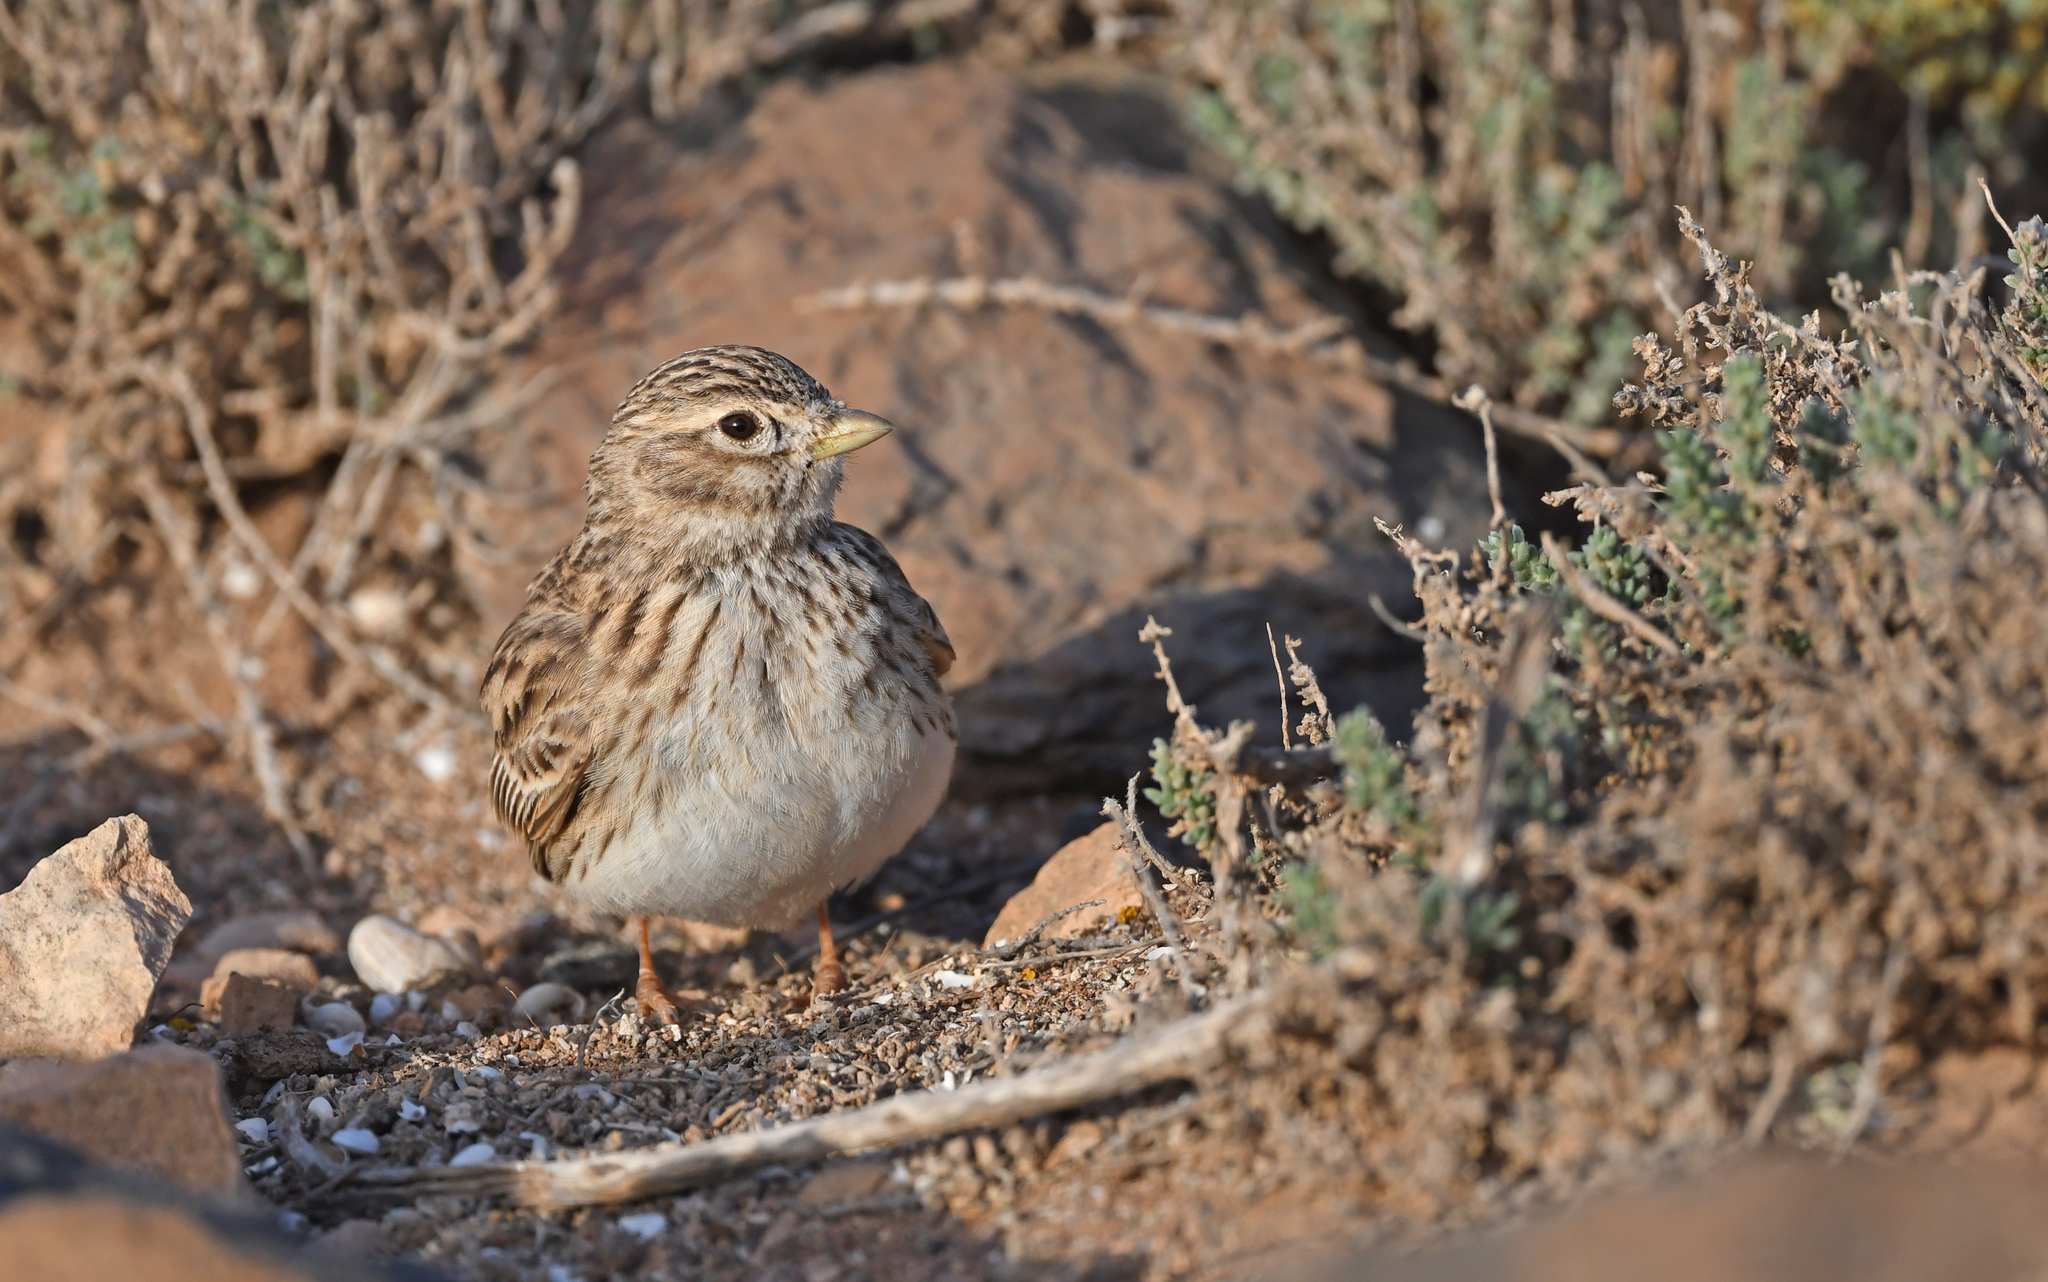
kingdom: Animalia
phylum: Chordata
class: Aves
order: Passeriformes
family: Alaudidae
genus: Calandrella
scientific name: Calandrella rufescens
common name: Lesser short-toed lark
